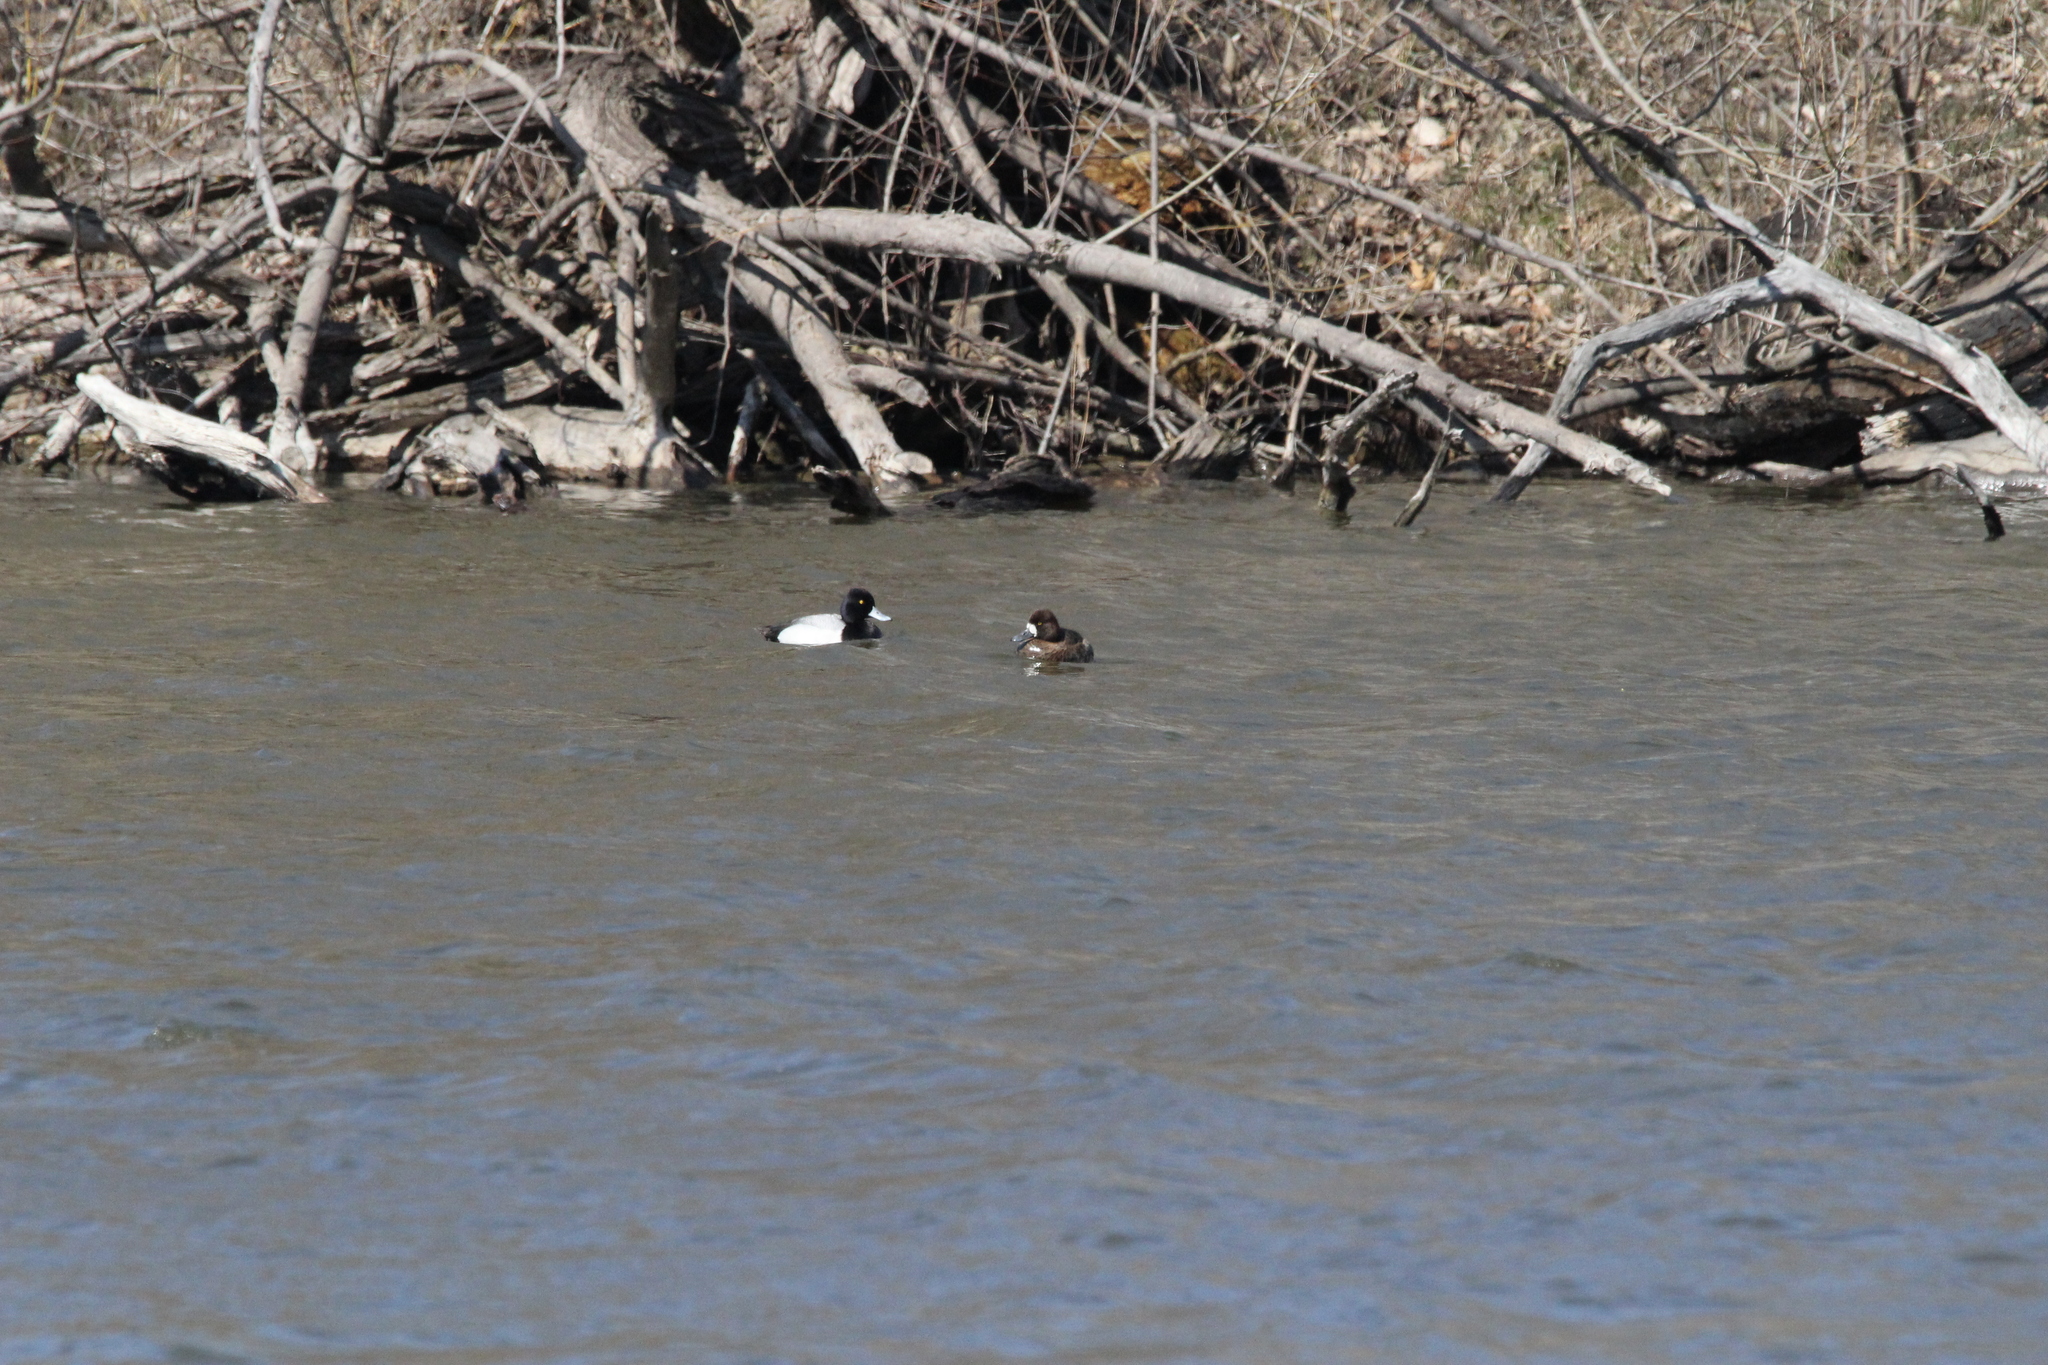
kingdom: Animalia
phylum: Chordata
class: Aves
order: Anseriformes
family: Anatidae
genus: Aythya
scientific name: Aythya affinis
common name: Lesser scaup
